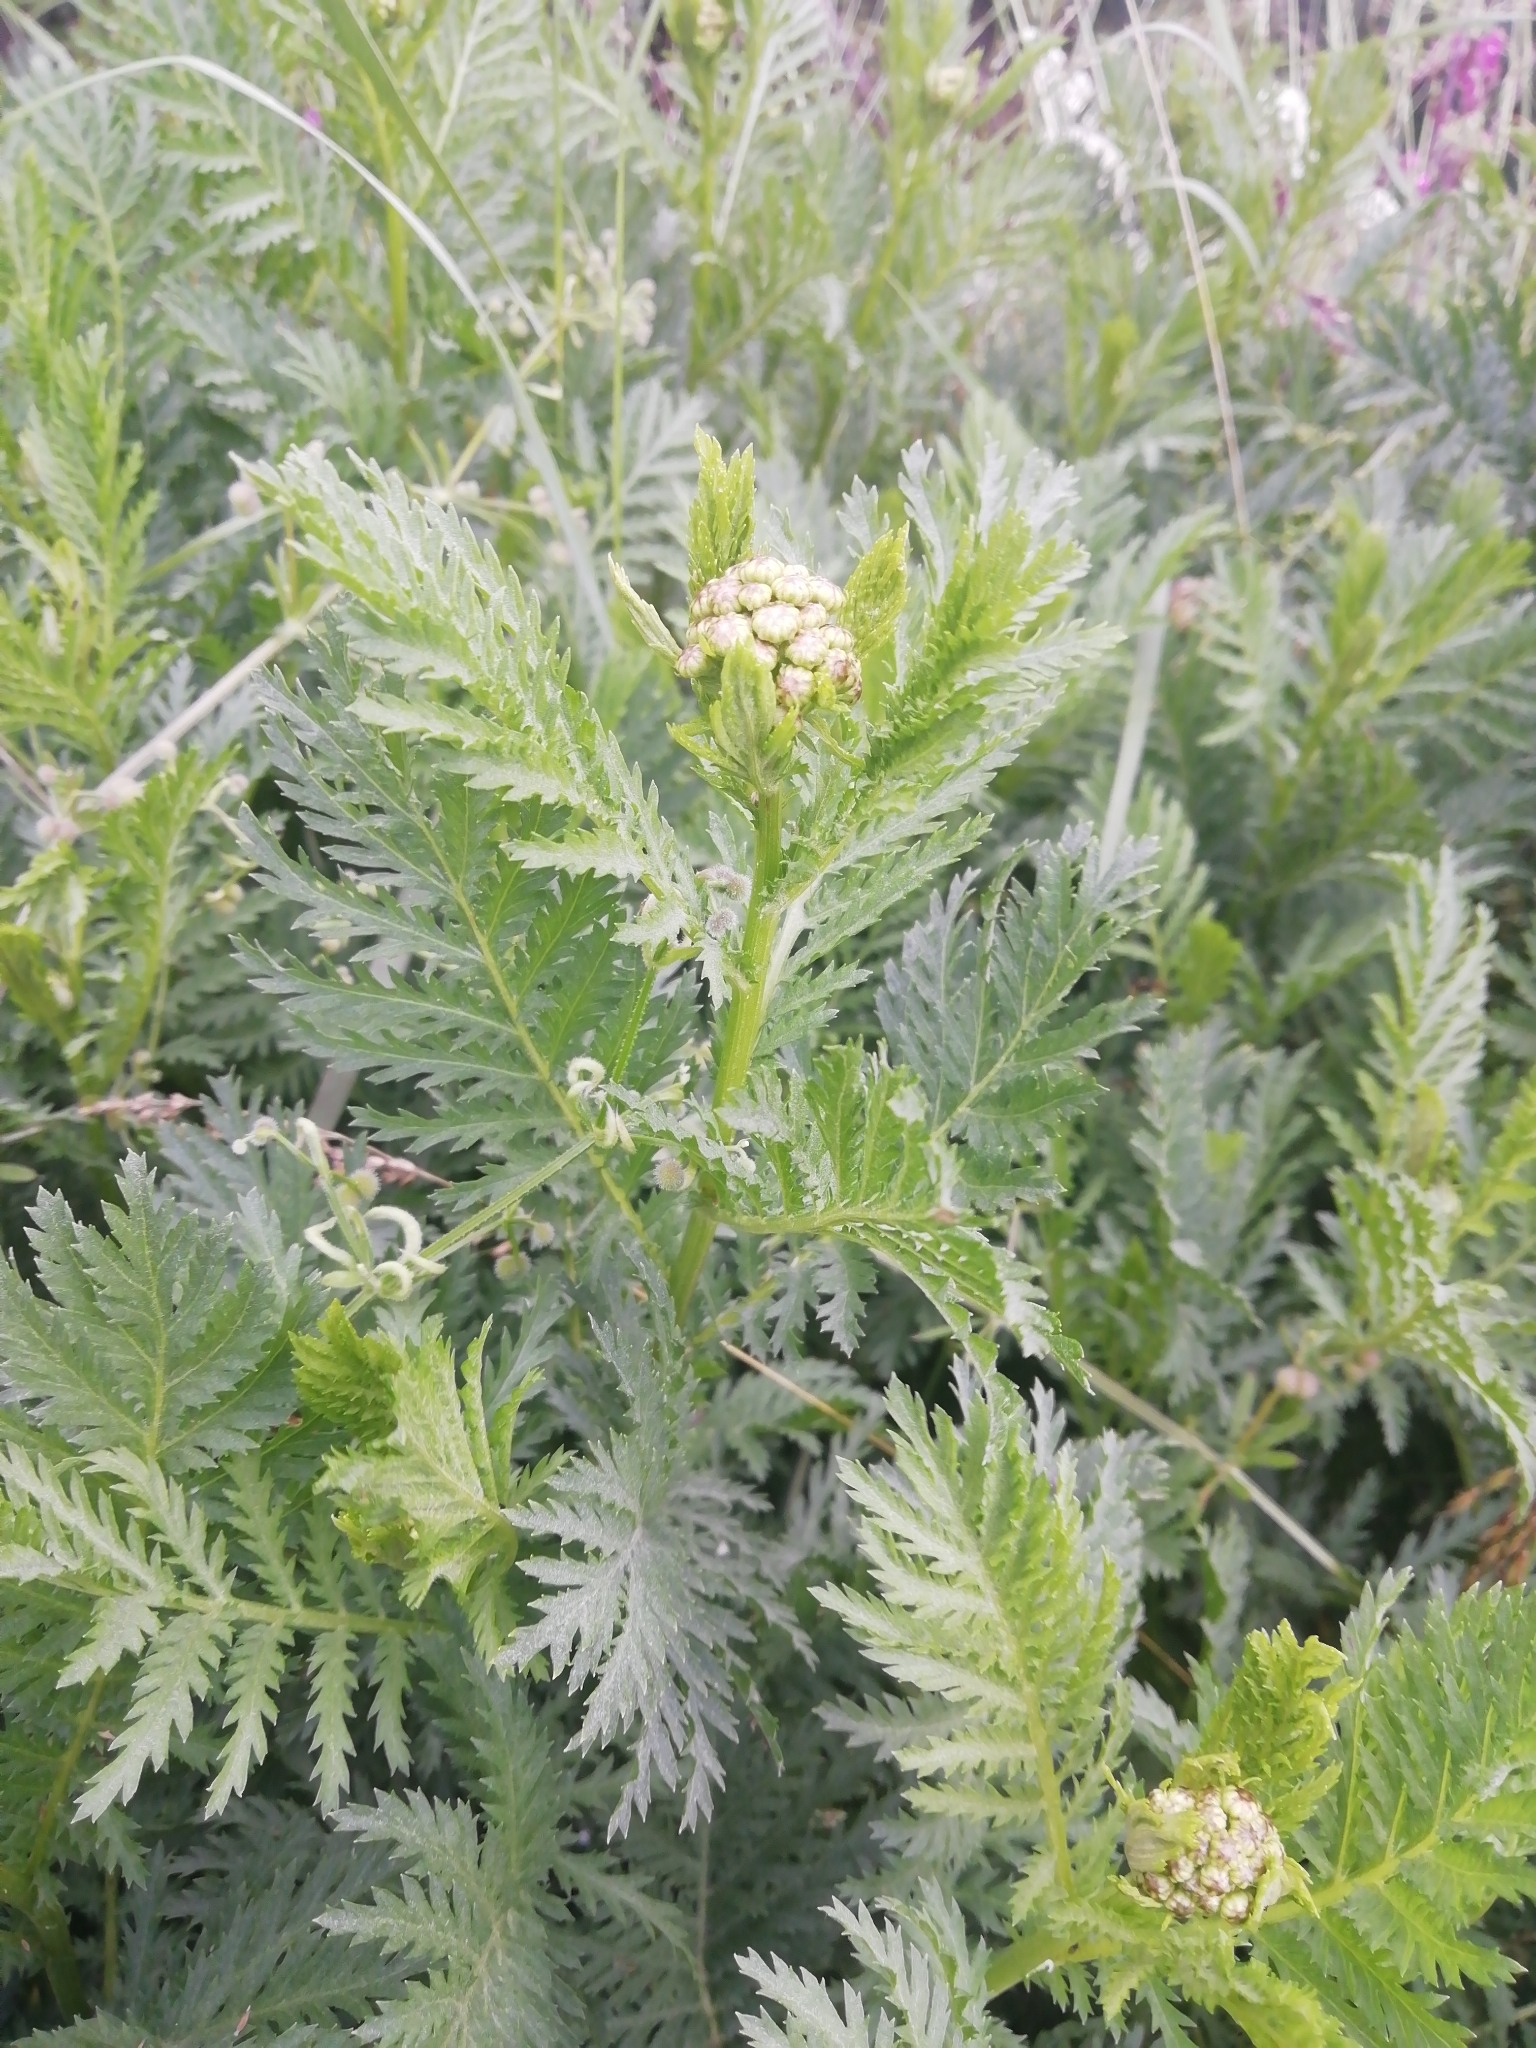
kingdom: Plantae
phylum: Tracheophyta
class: Magnoliopsida
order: Asterales
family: Asteraceae
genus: Tanacetum
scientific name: Tanacetum vulgare
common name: Common tansy
